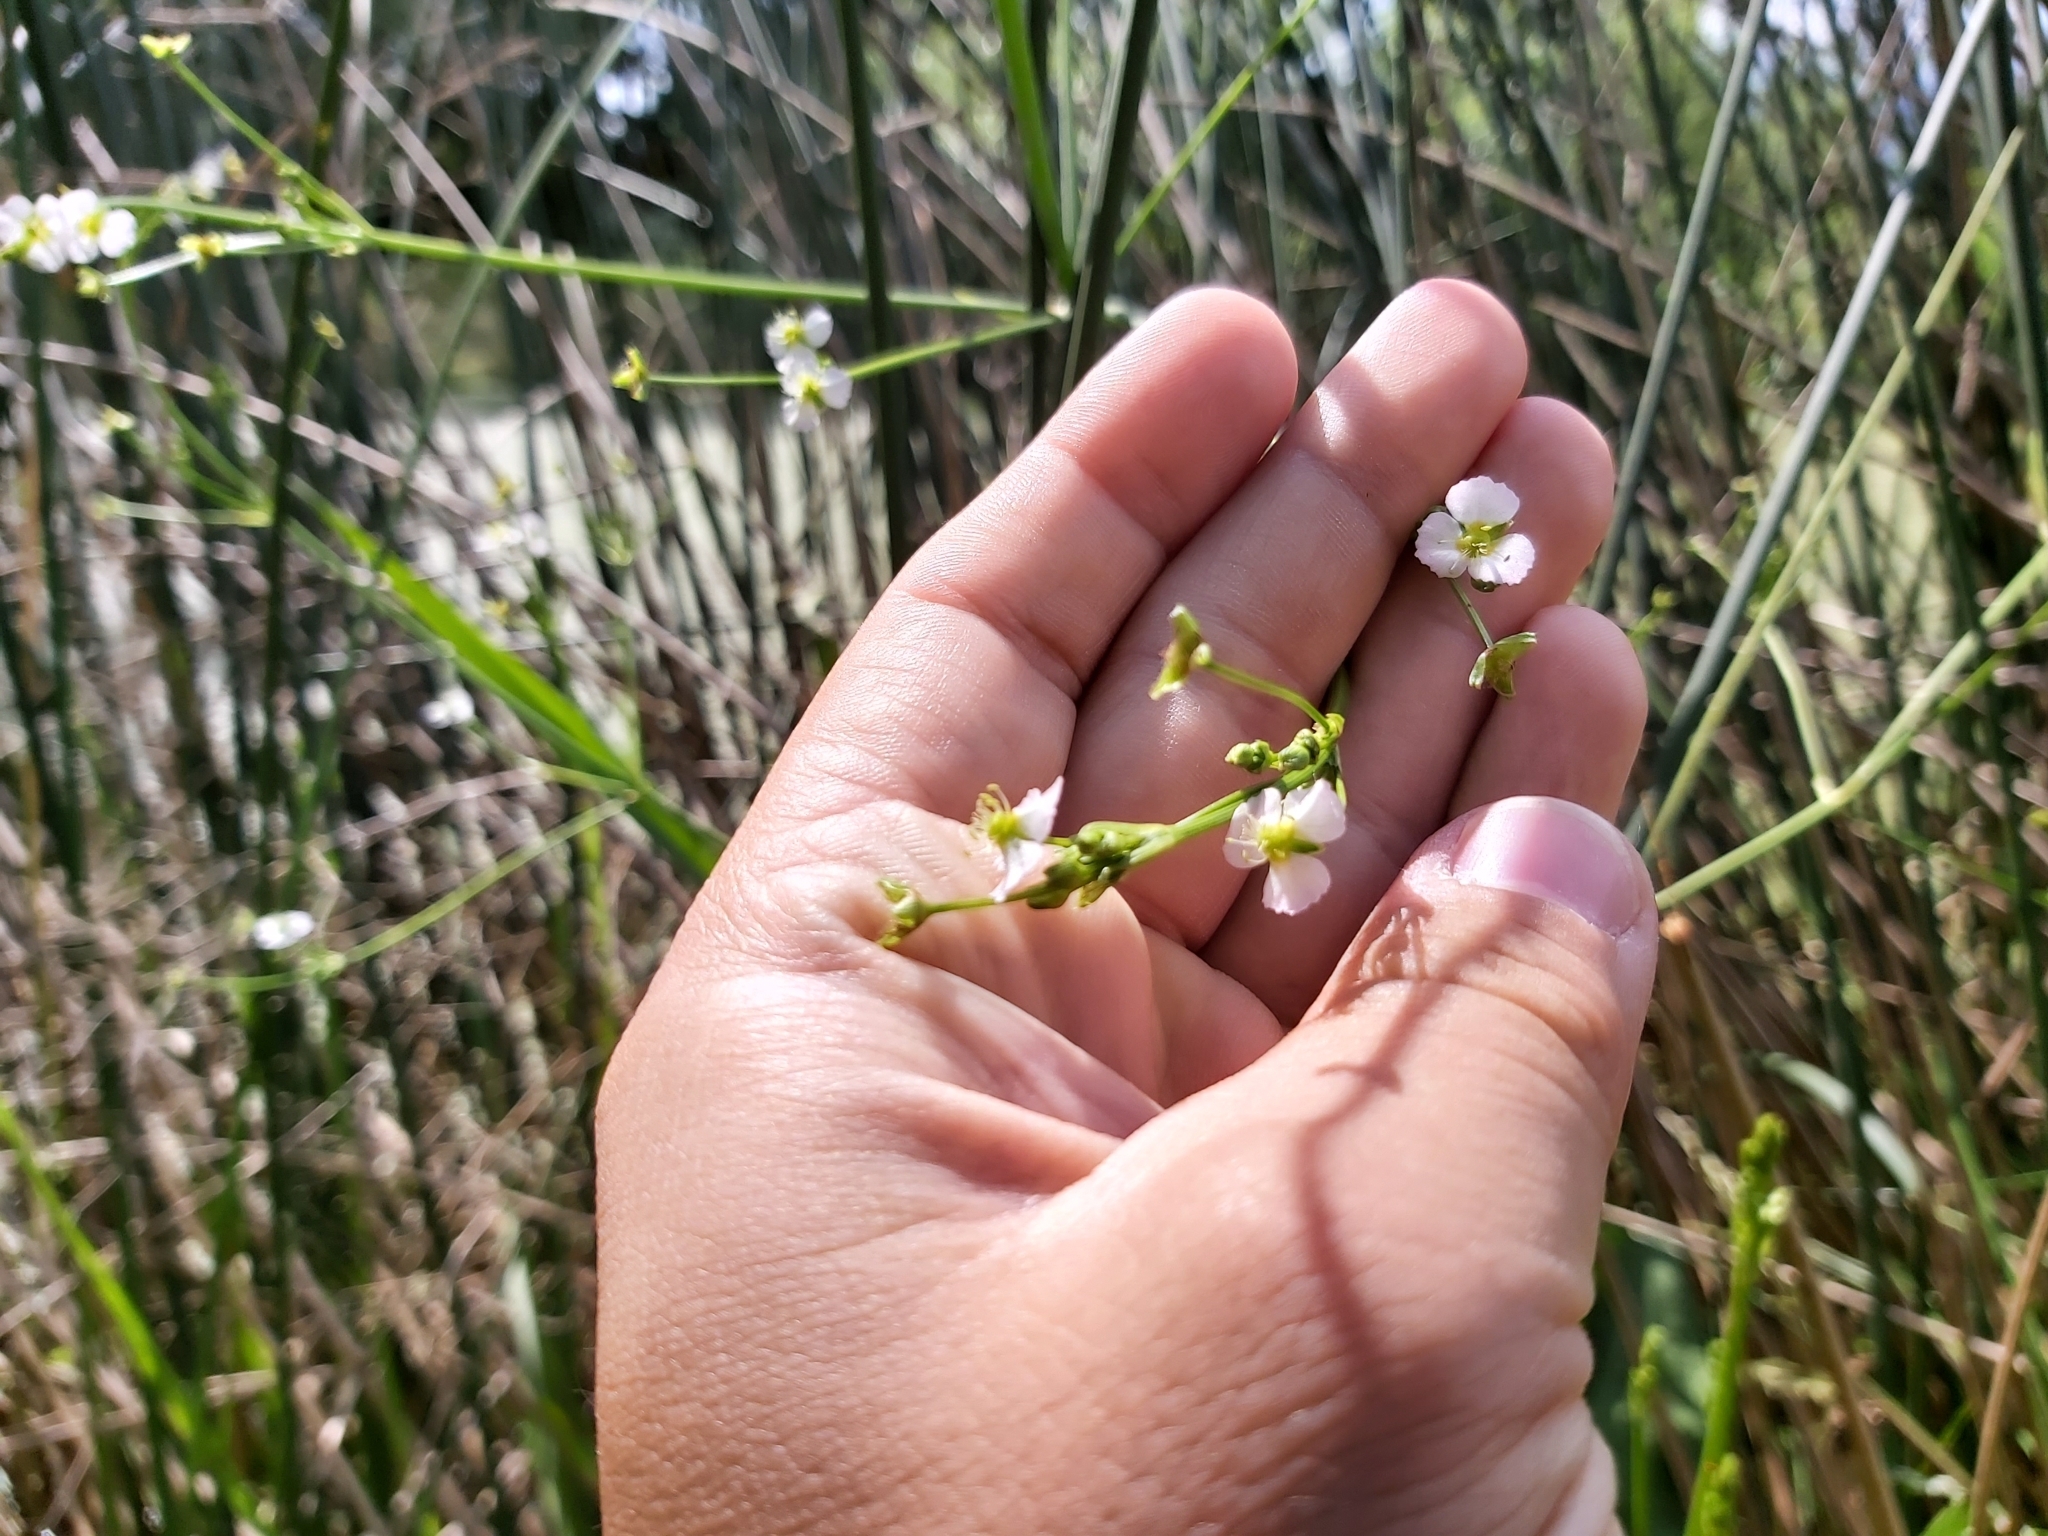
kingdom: Plantae
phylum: Tracheophyta
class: Liliopsida
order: Alismatales
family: Alismataceae
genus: Alisma
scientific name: Alisma plantago-aquatica
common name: Water-plantain
